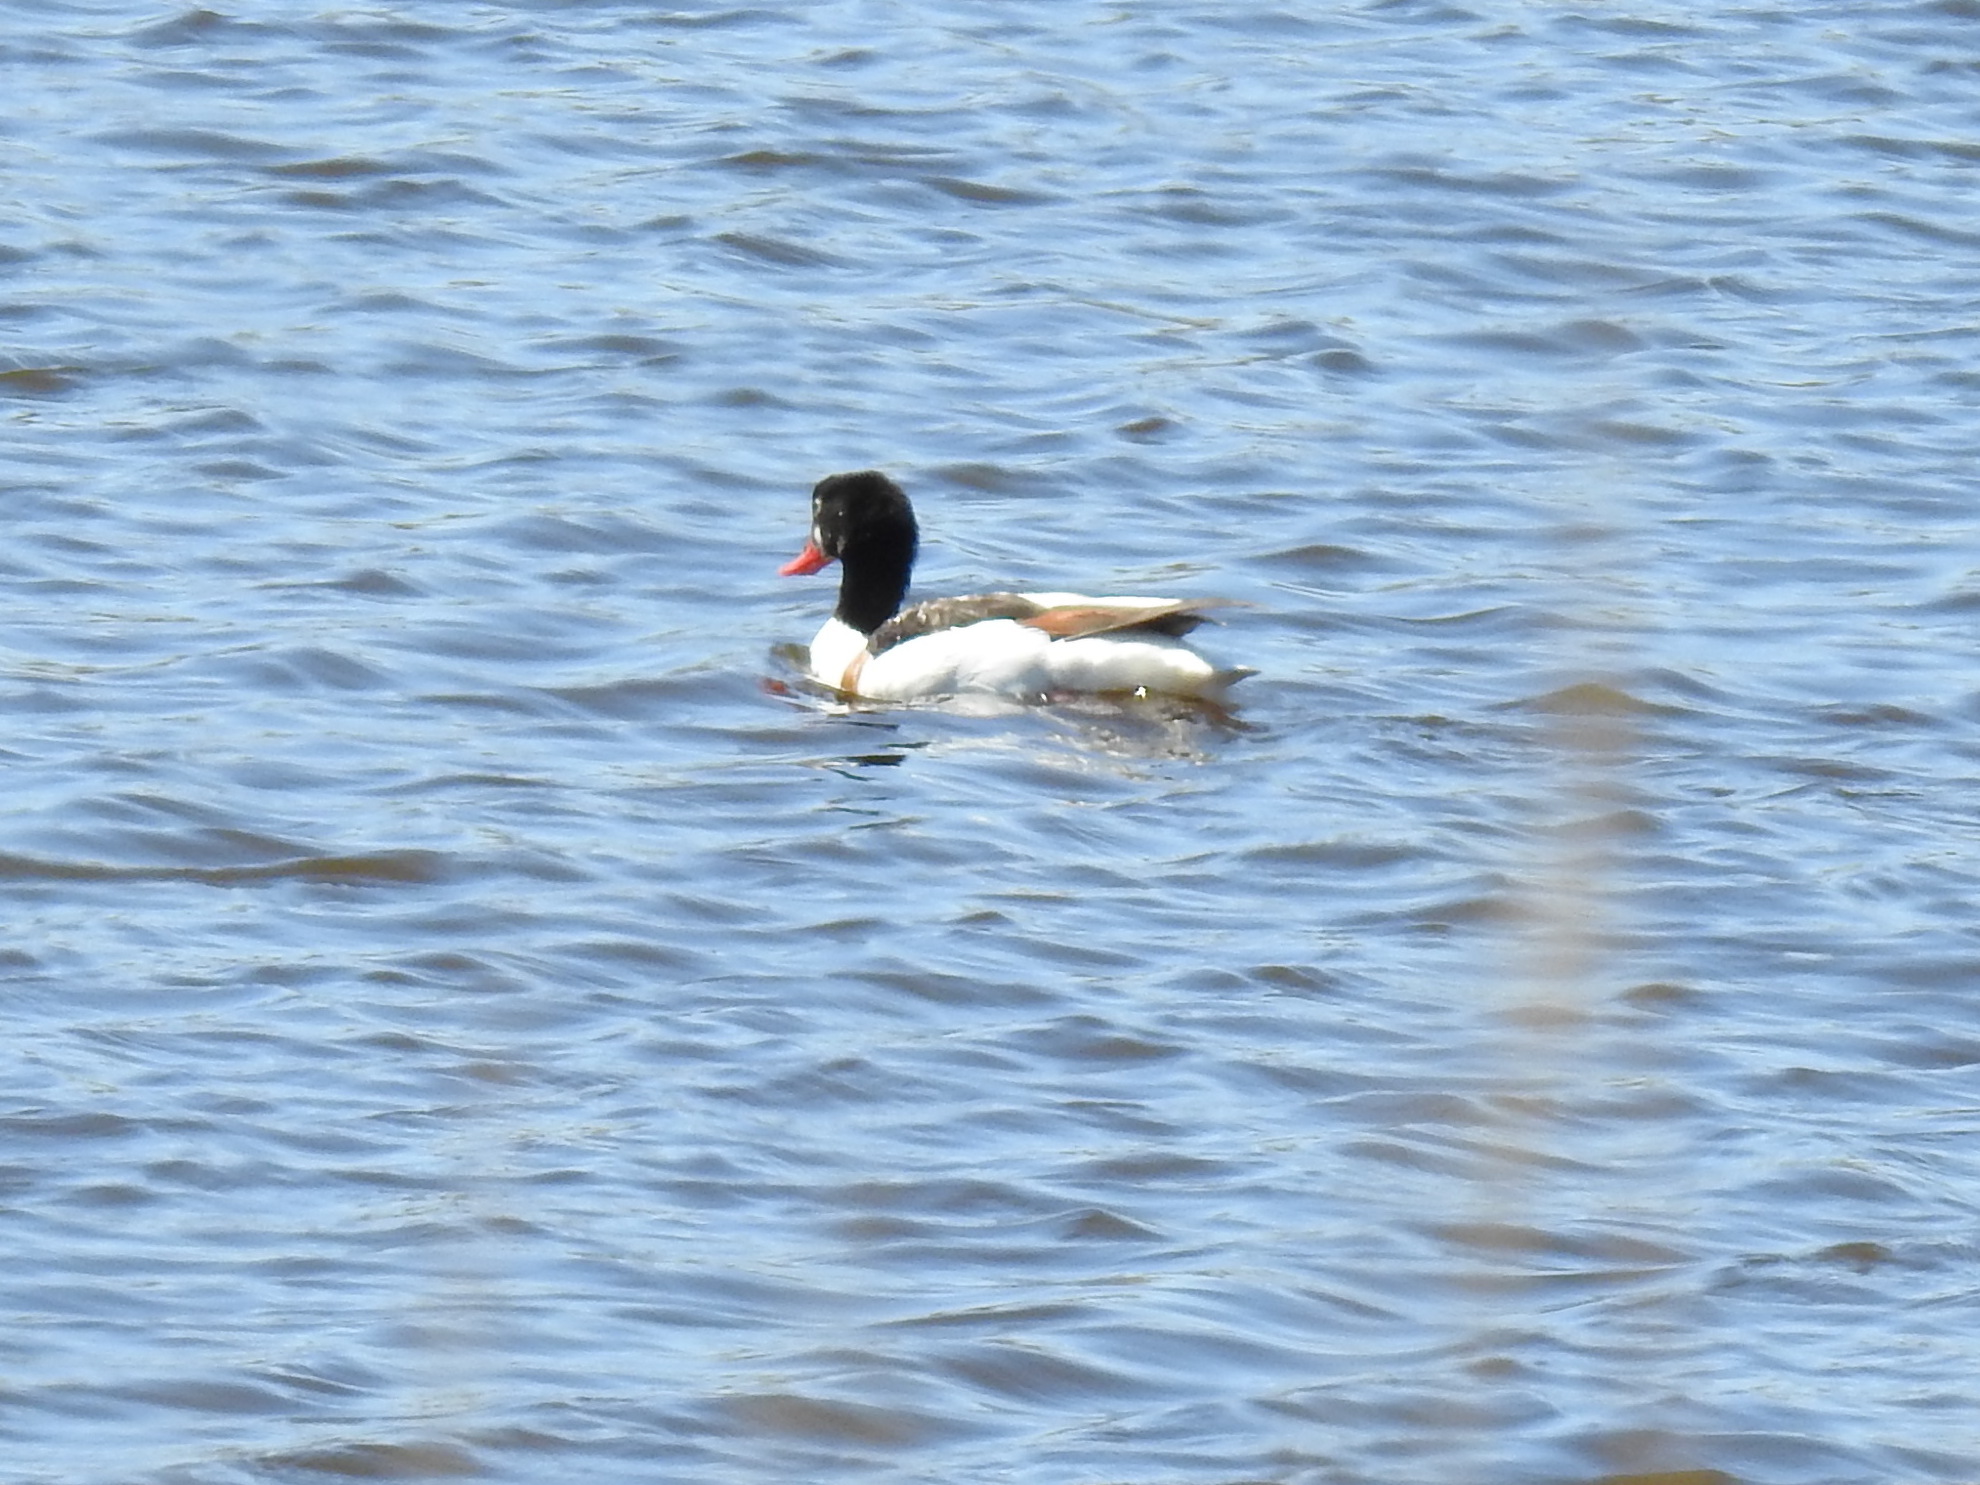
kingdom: Animalia
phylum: Chordata
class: Aves
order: Anseriformes
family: Anatidae
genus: Tadorna
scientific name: Tadorna tadorna
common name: Common shelduck
